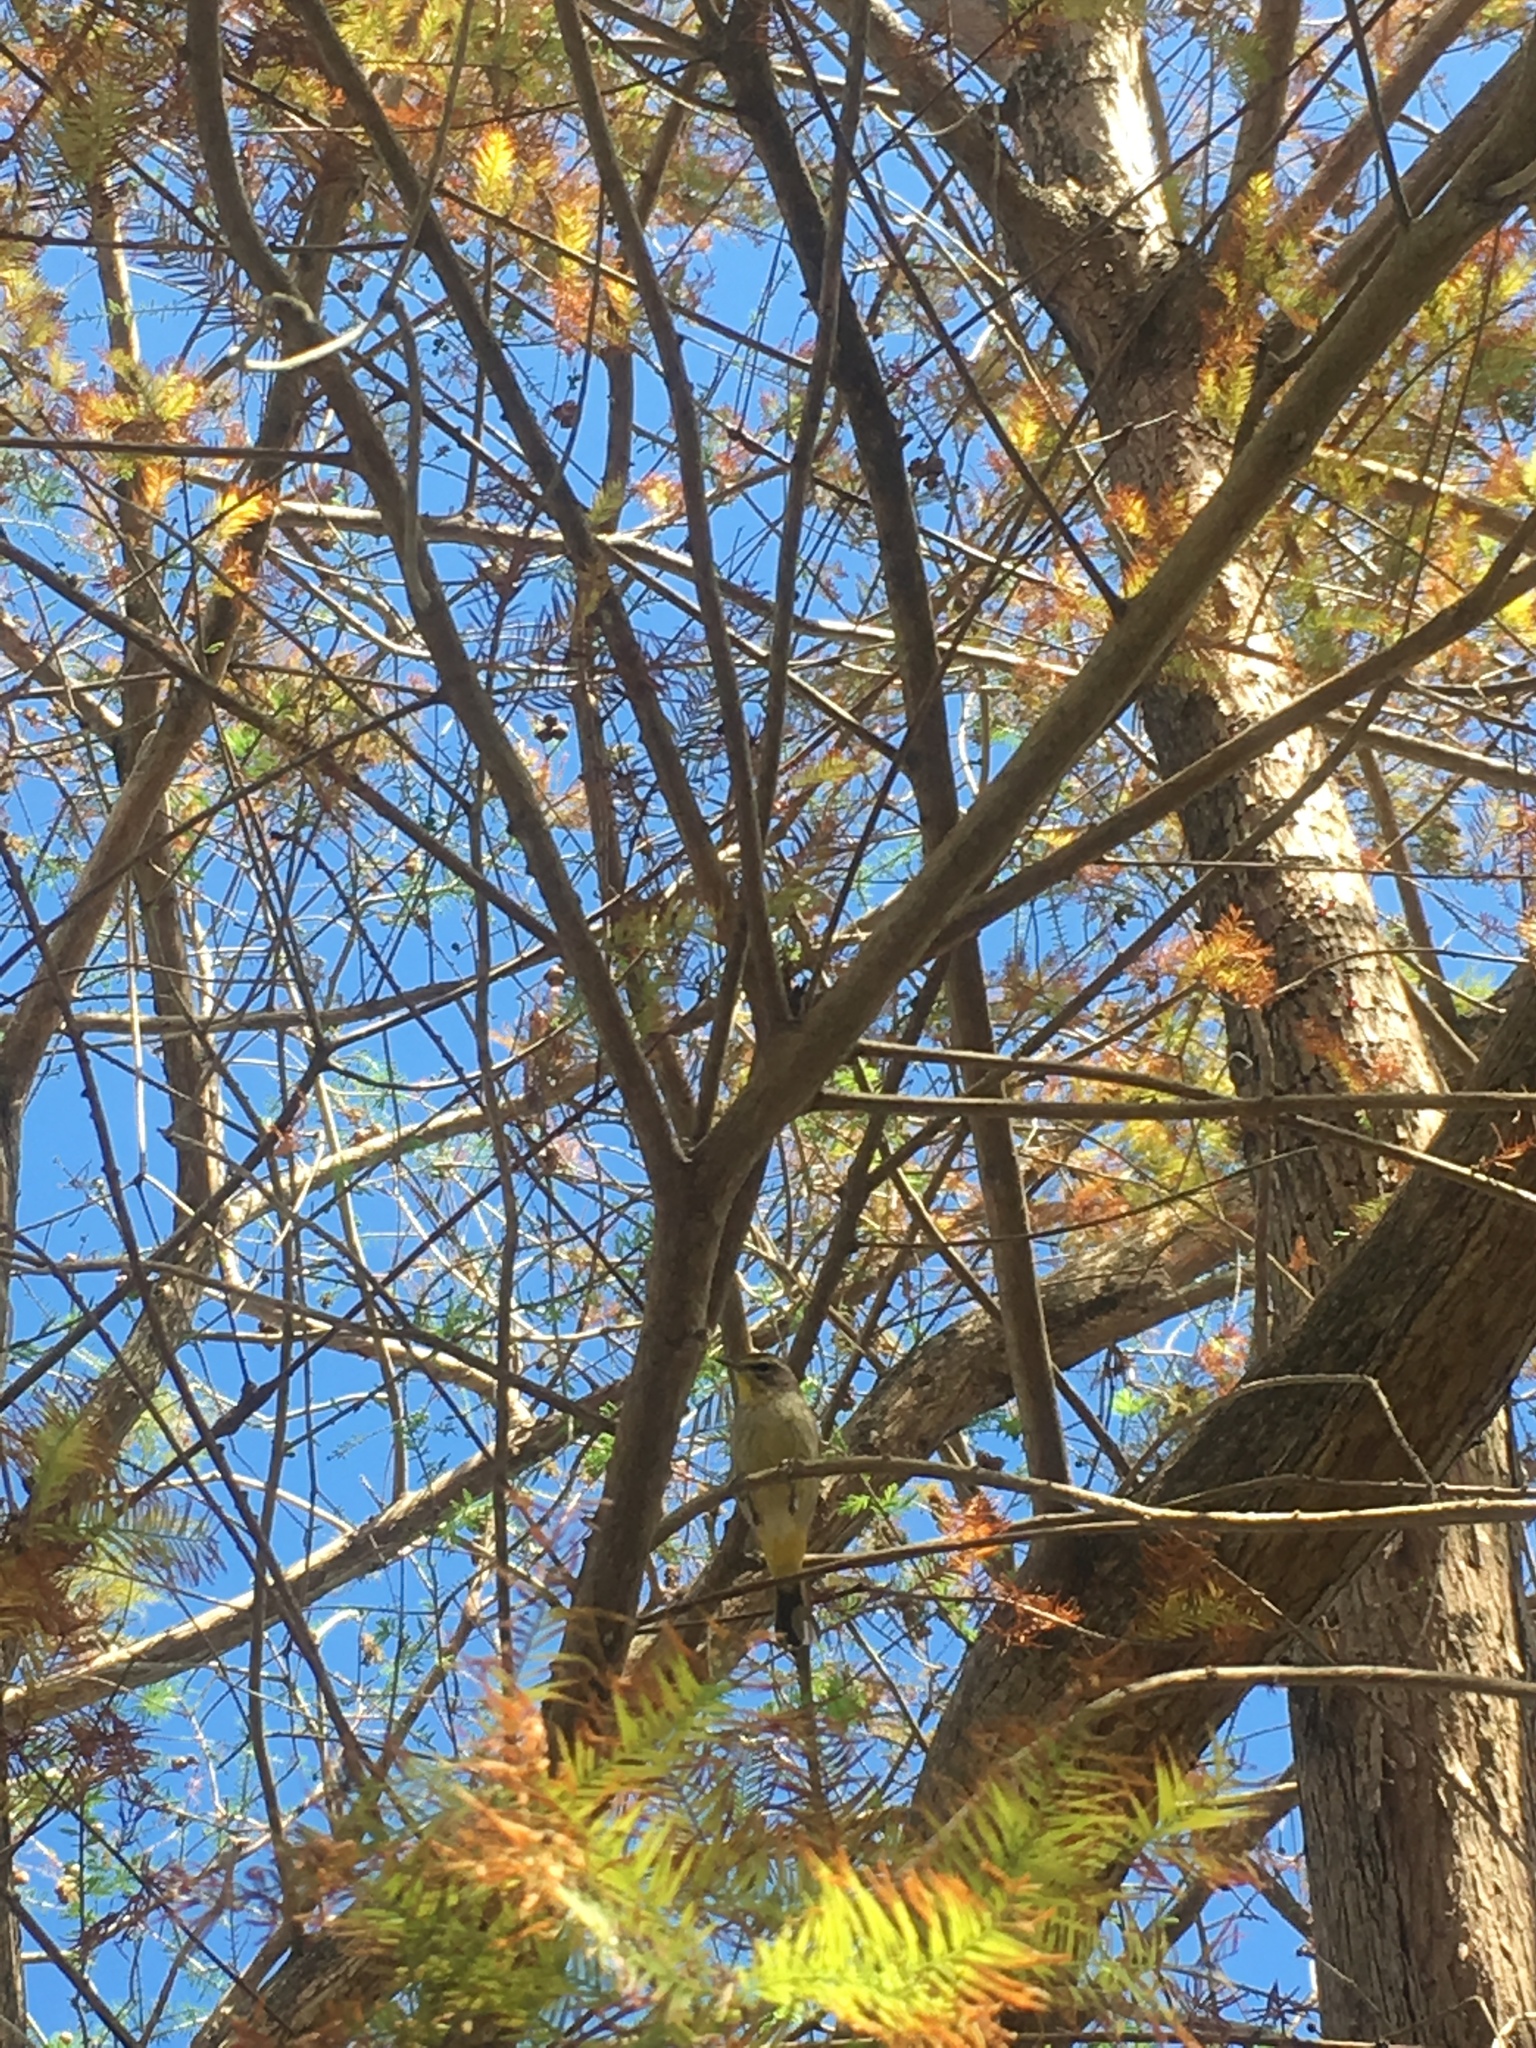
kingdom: Animalia
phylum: Chordata
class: Aves
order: Passeriformes
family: Parulidae
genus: Setophaga
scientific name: Setophaga palmarum
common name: Palm warbler
